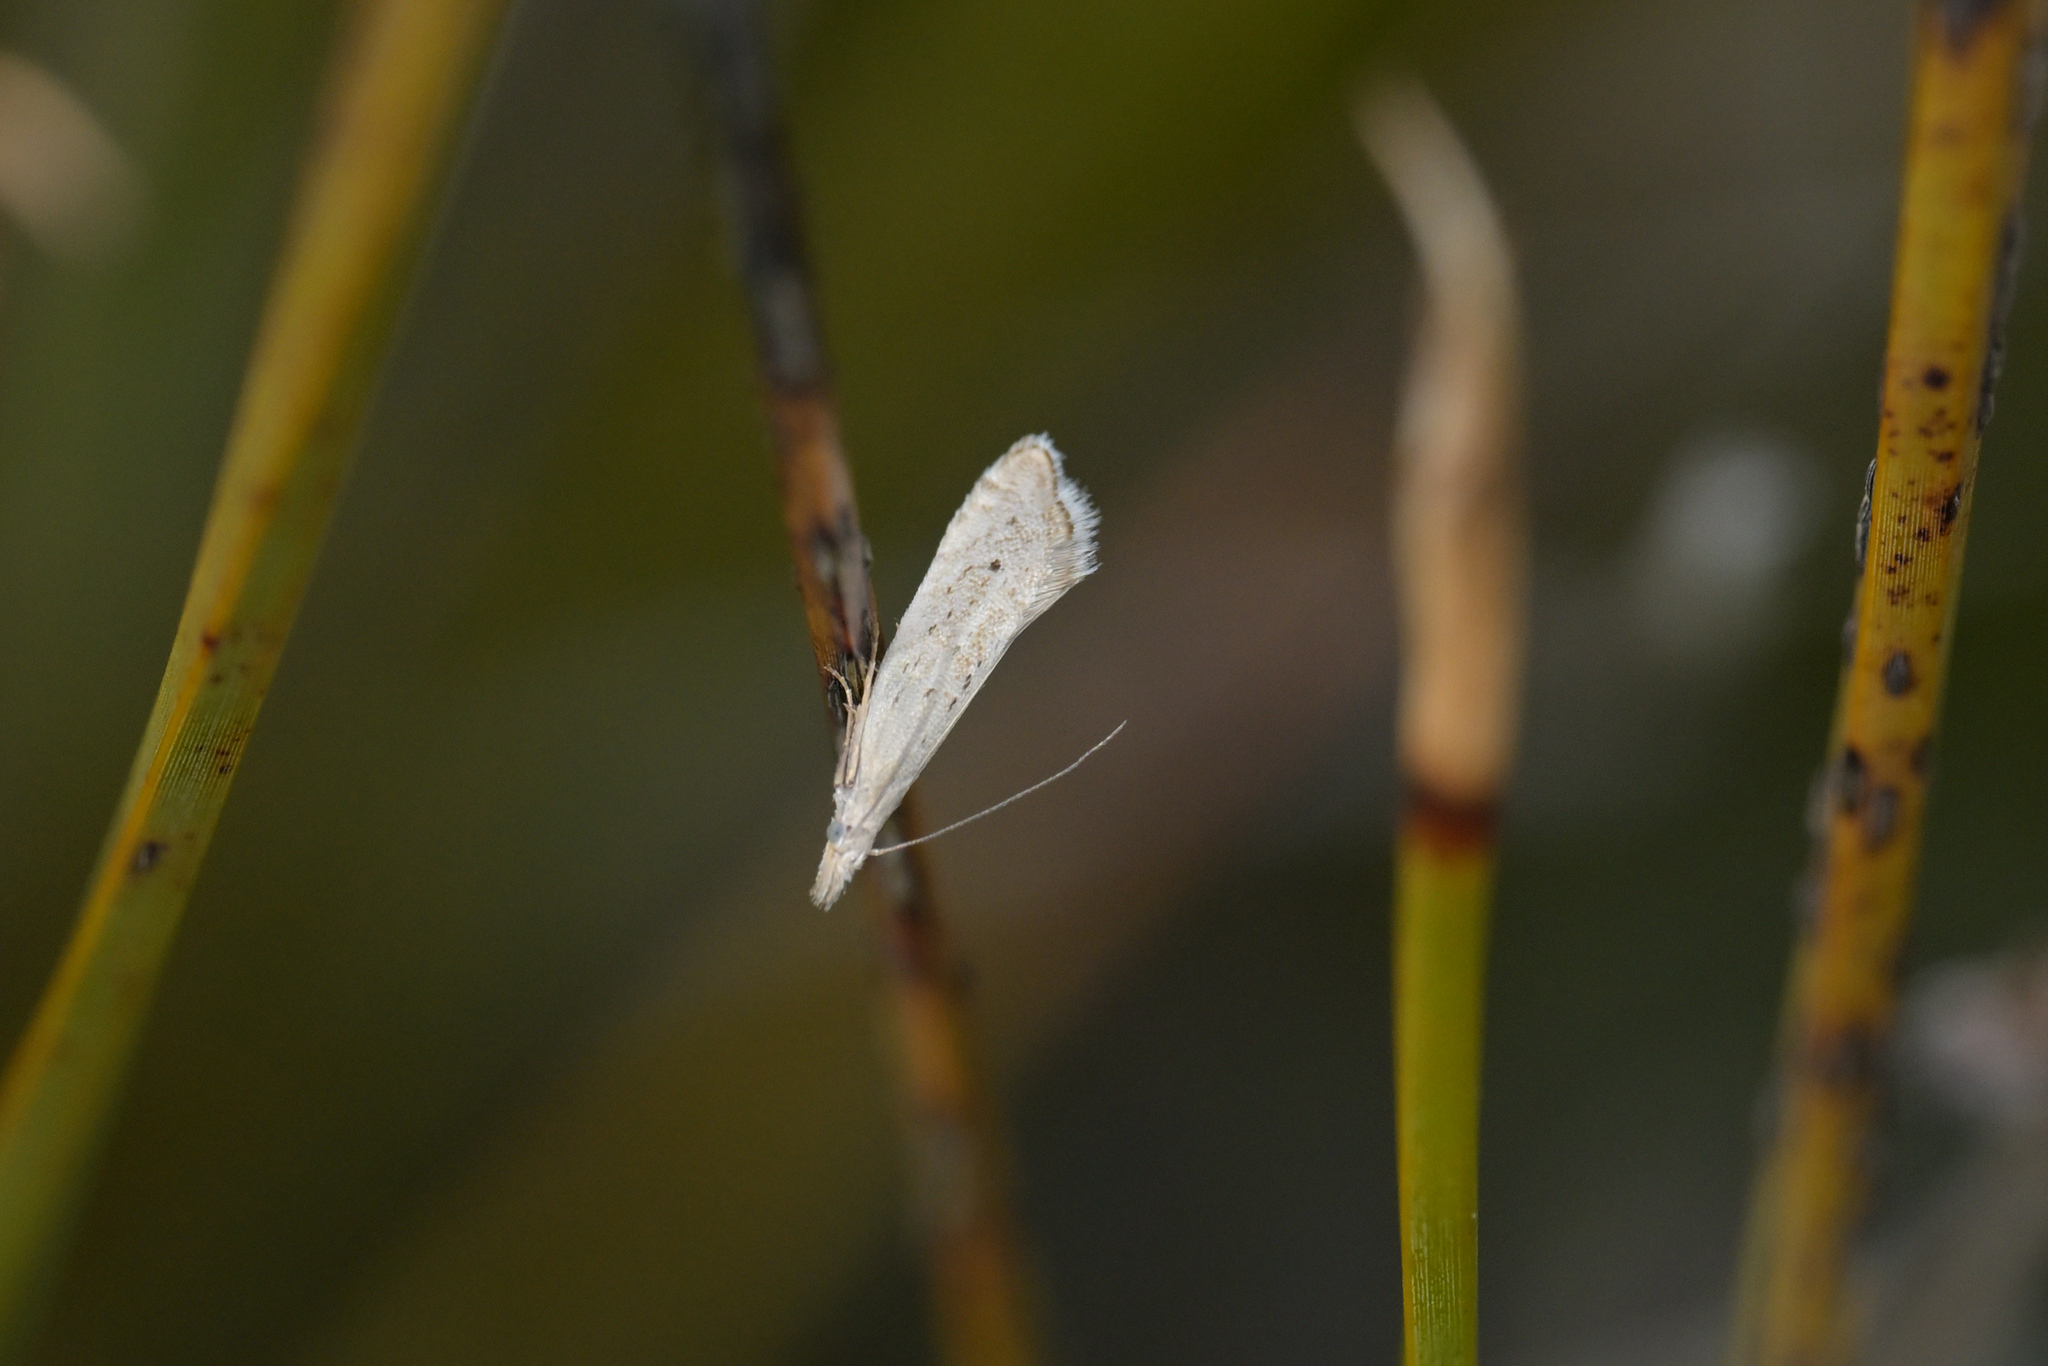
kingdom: Animalia
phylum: Arthropoda
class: Insecta
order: Lepidoptera
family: Glyphipterigidae
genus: Glyphipterix
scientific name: Glyphipterix achlyoessa
